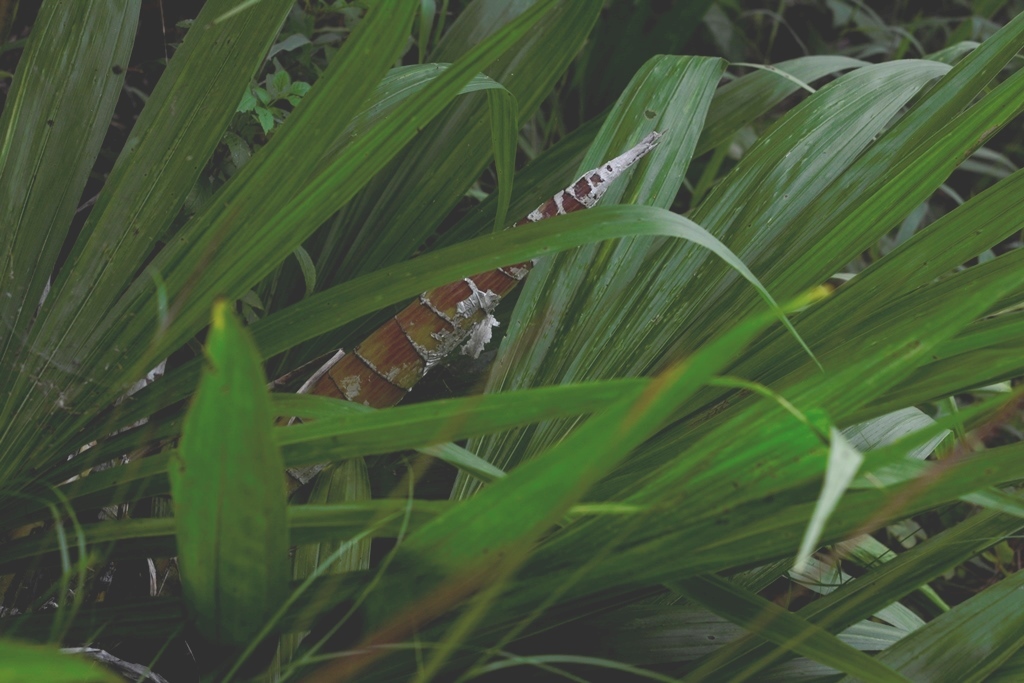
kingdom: Plantae
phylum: Tracheophyta
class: Liliopsida
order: Asparagales
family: Orchidaceae
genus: Cyrtopodium
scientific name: Cyrtopodium macrobulbon
